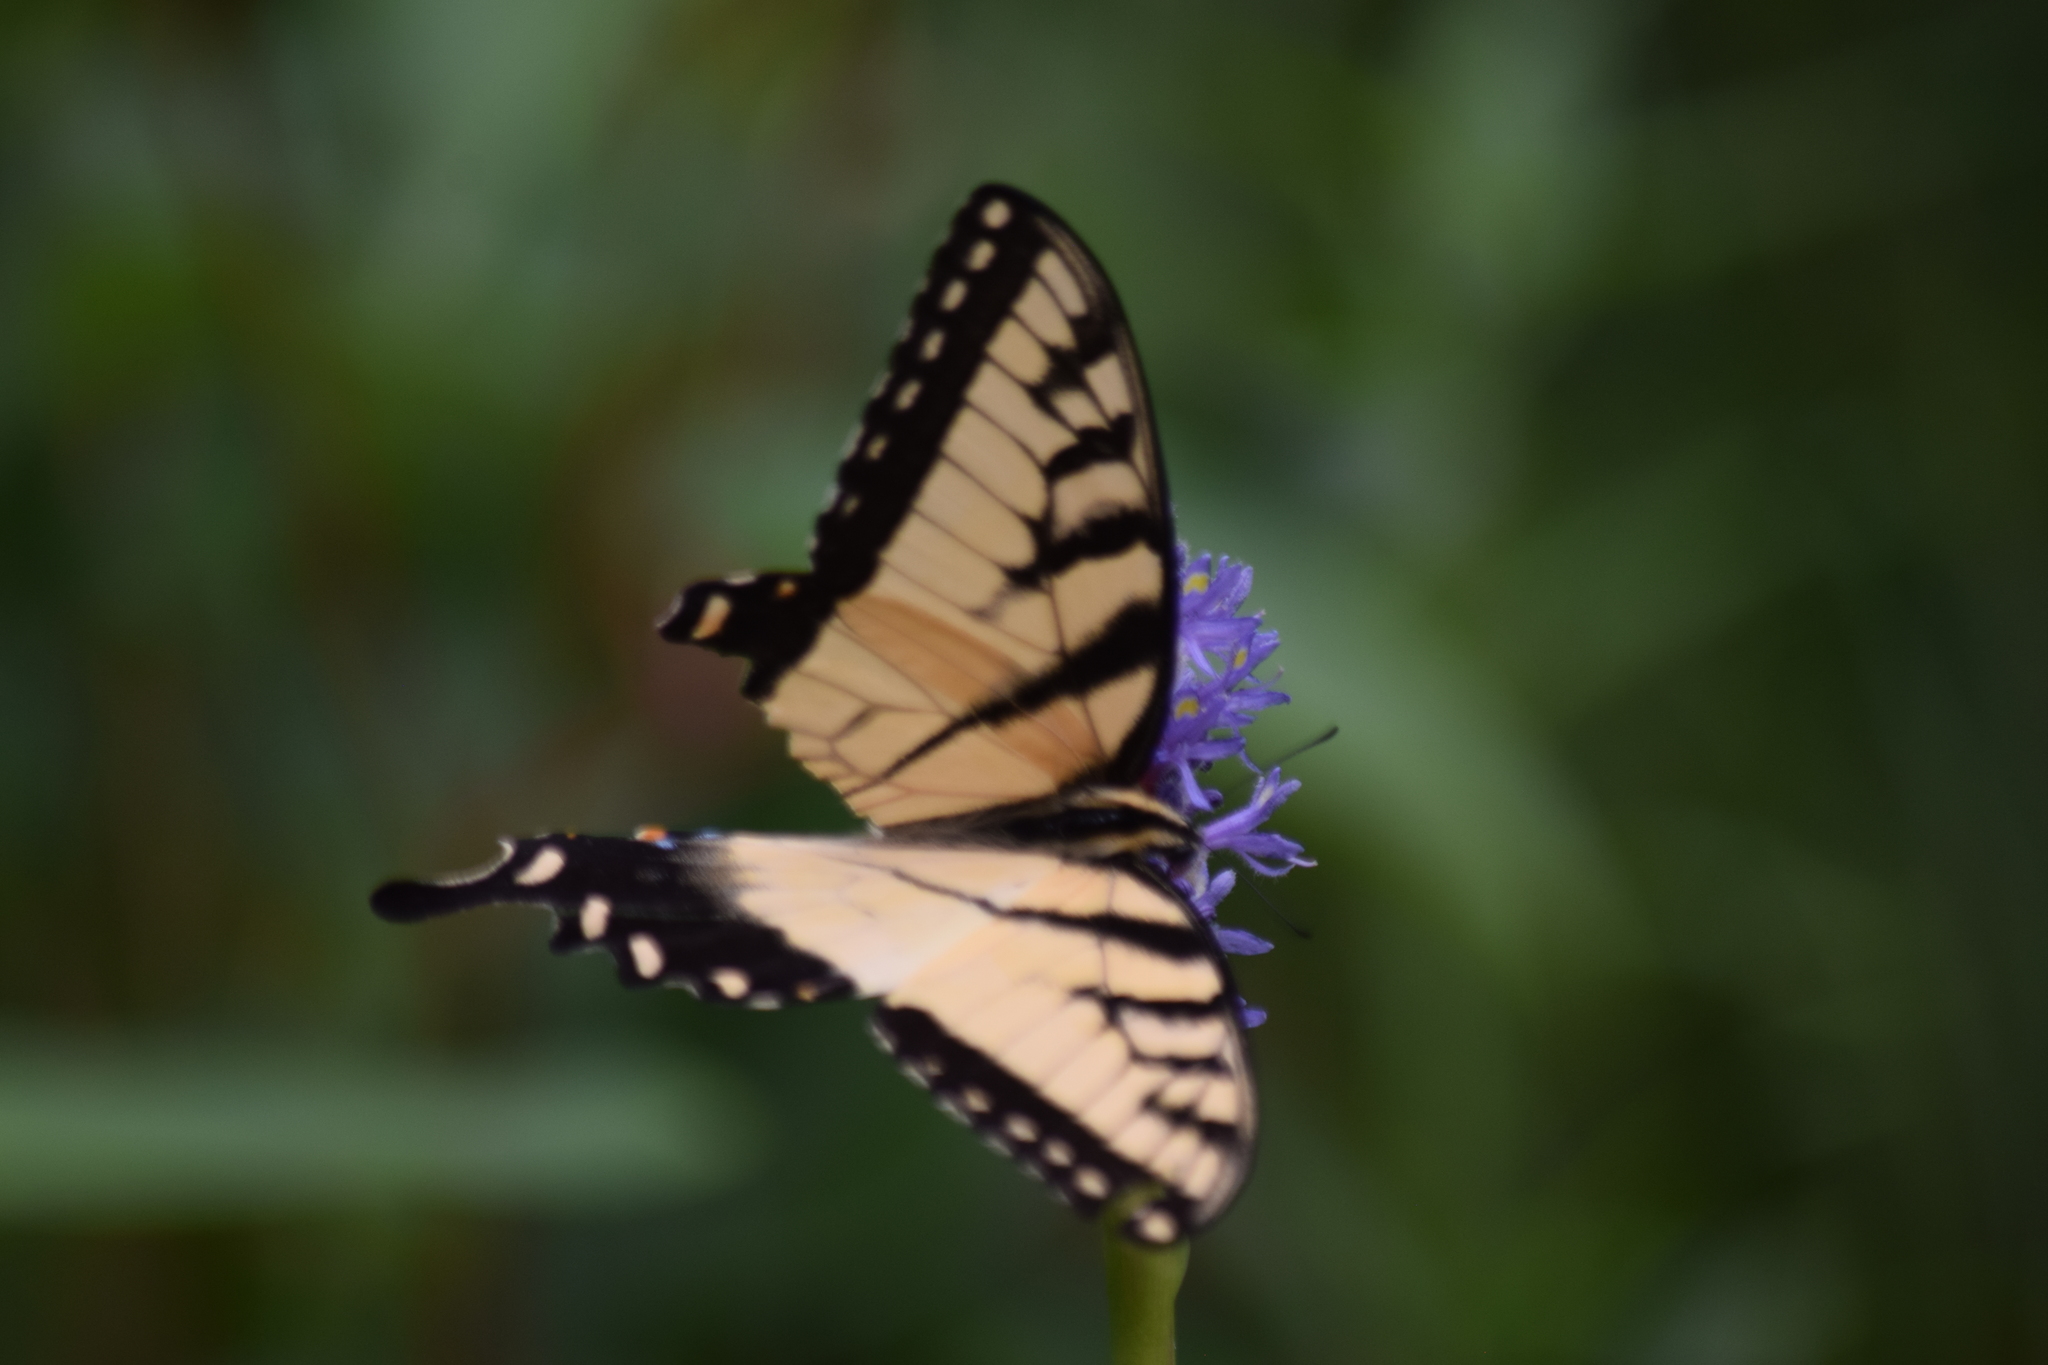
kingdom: Animalia
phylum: Arthropoda
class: Insecta
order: Lepidoptera
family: Papilionidae
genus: Papilio
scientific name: Papilio glaucus
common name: Tiger swallowtail
